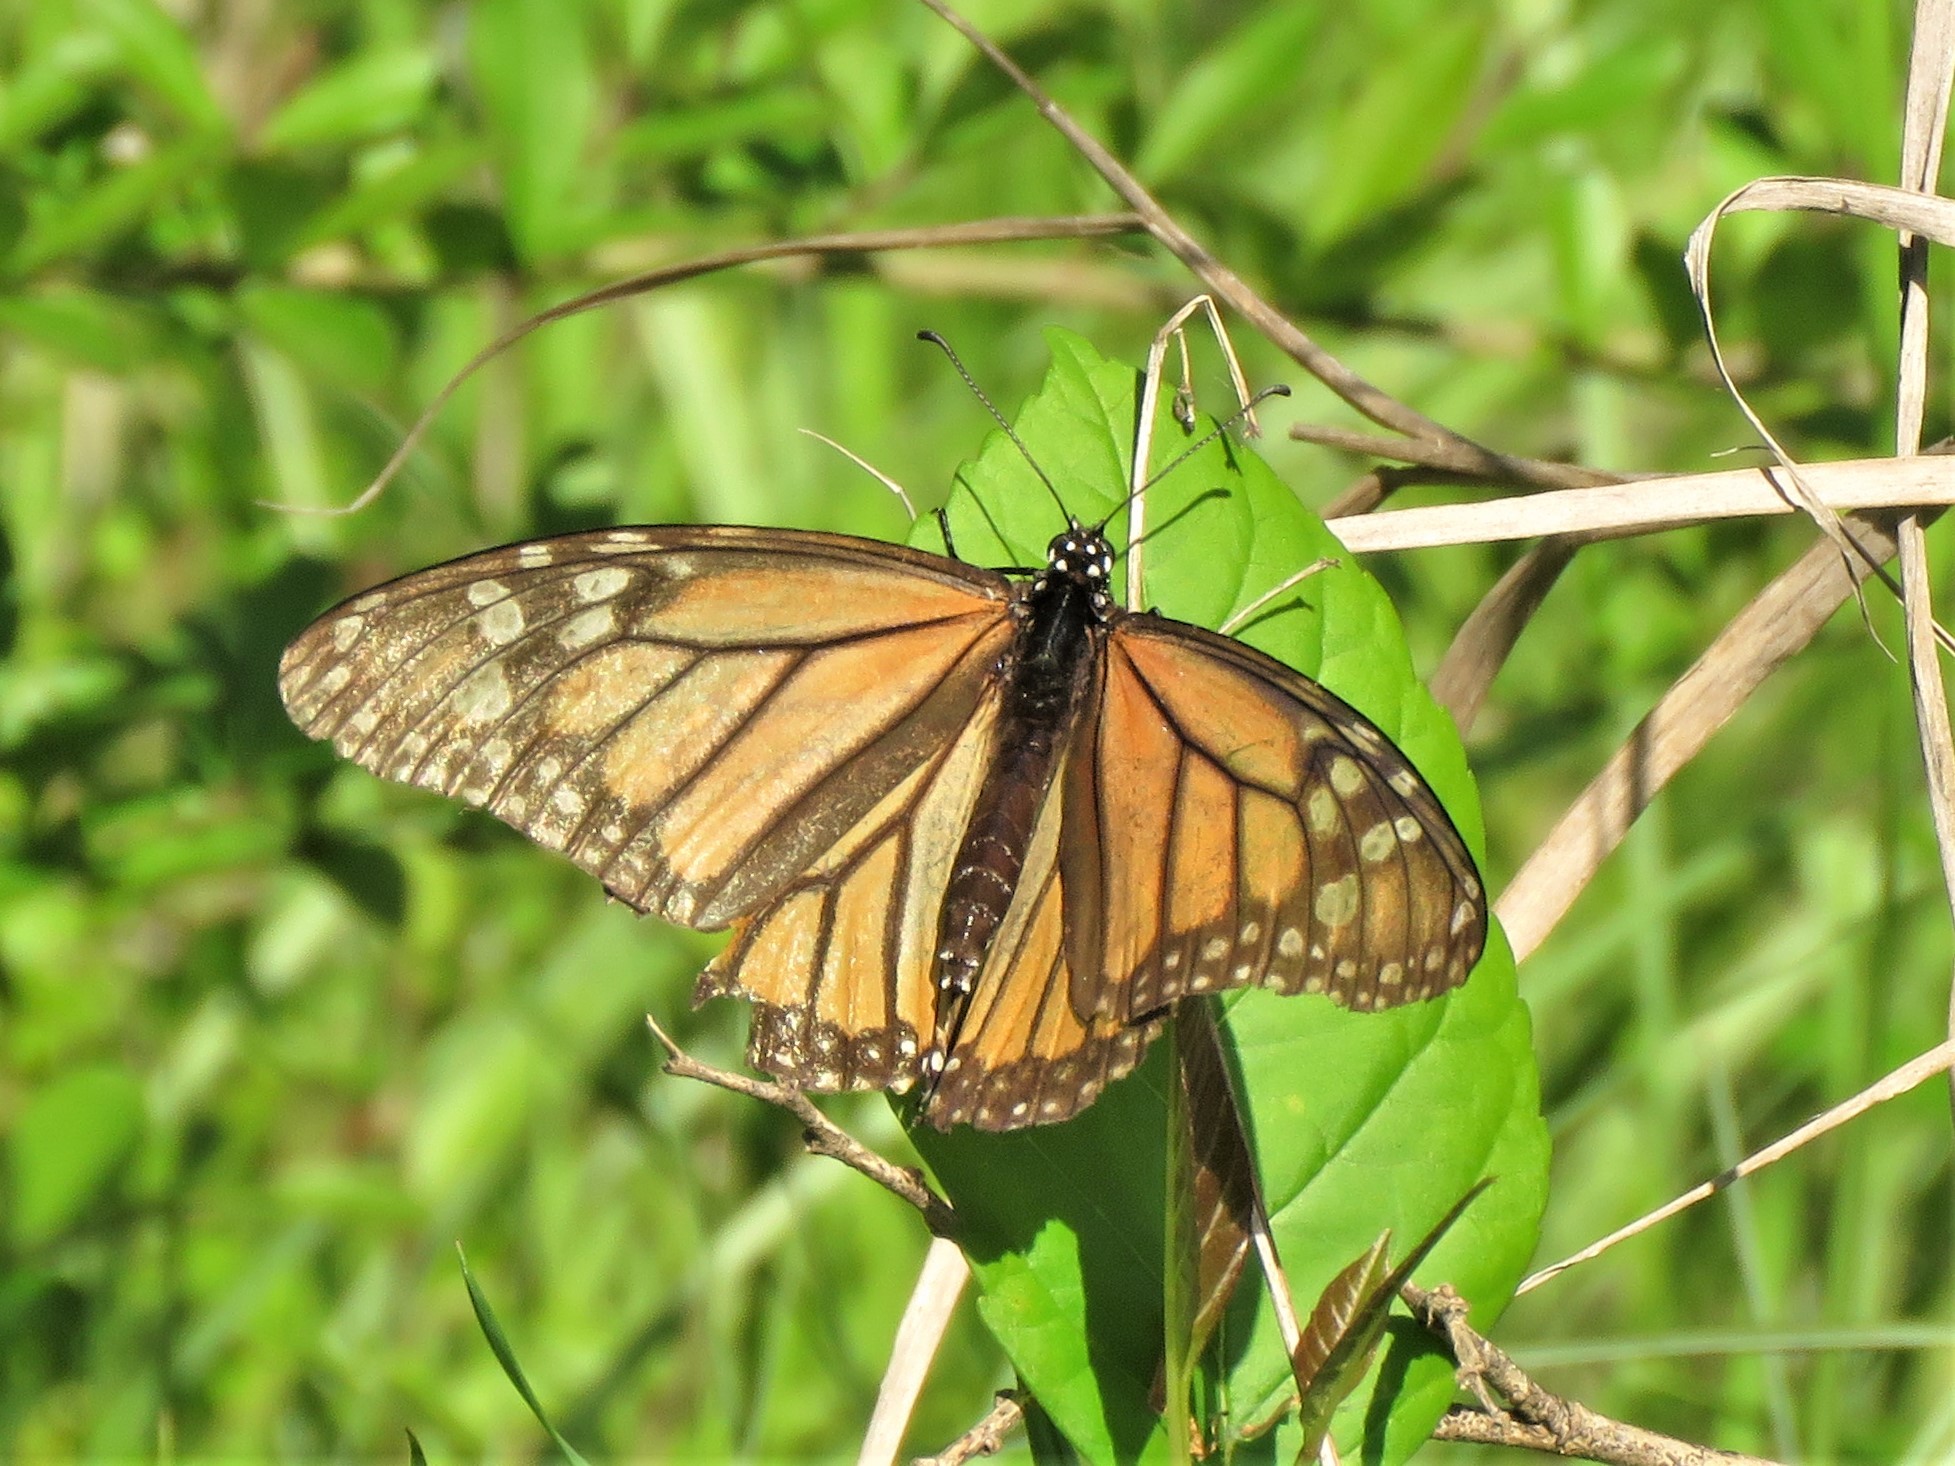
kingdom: Animalia
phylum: Arthropoda
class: Insecta
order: Lepidoptera
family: Nymphalidae
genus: Danaus
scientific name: Danaus plexippus
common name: Monarch
